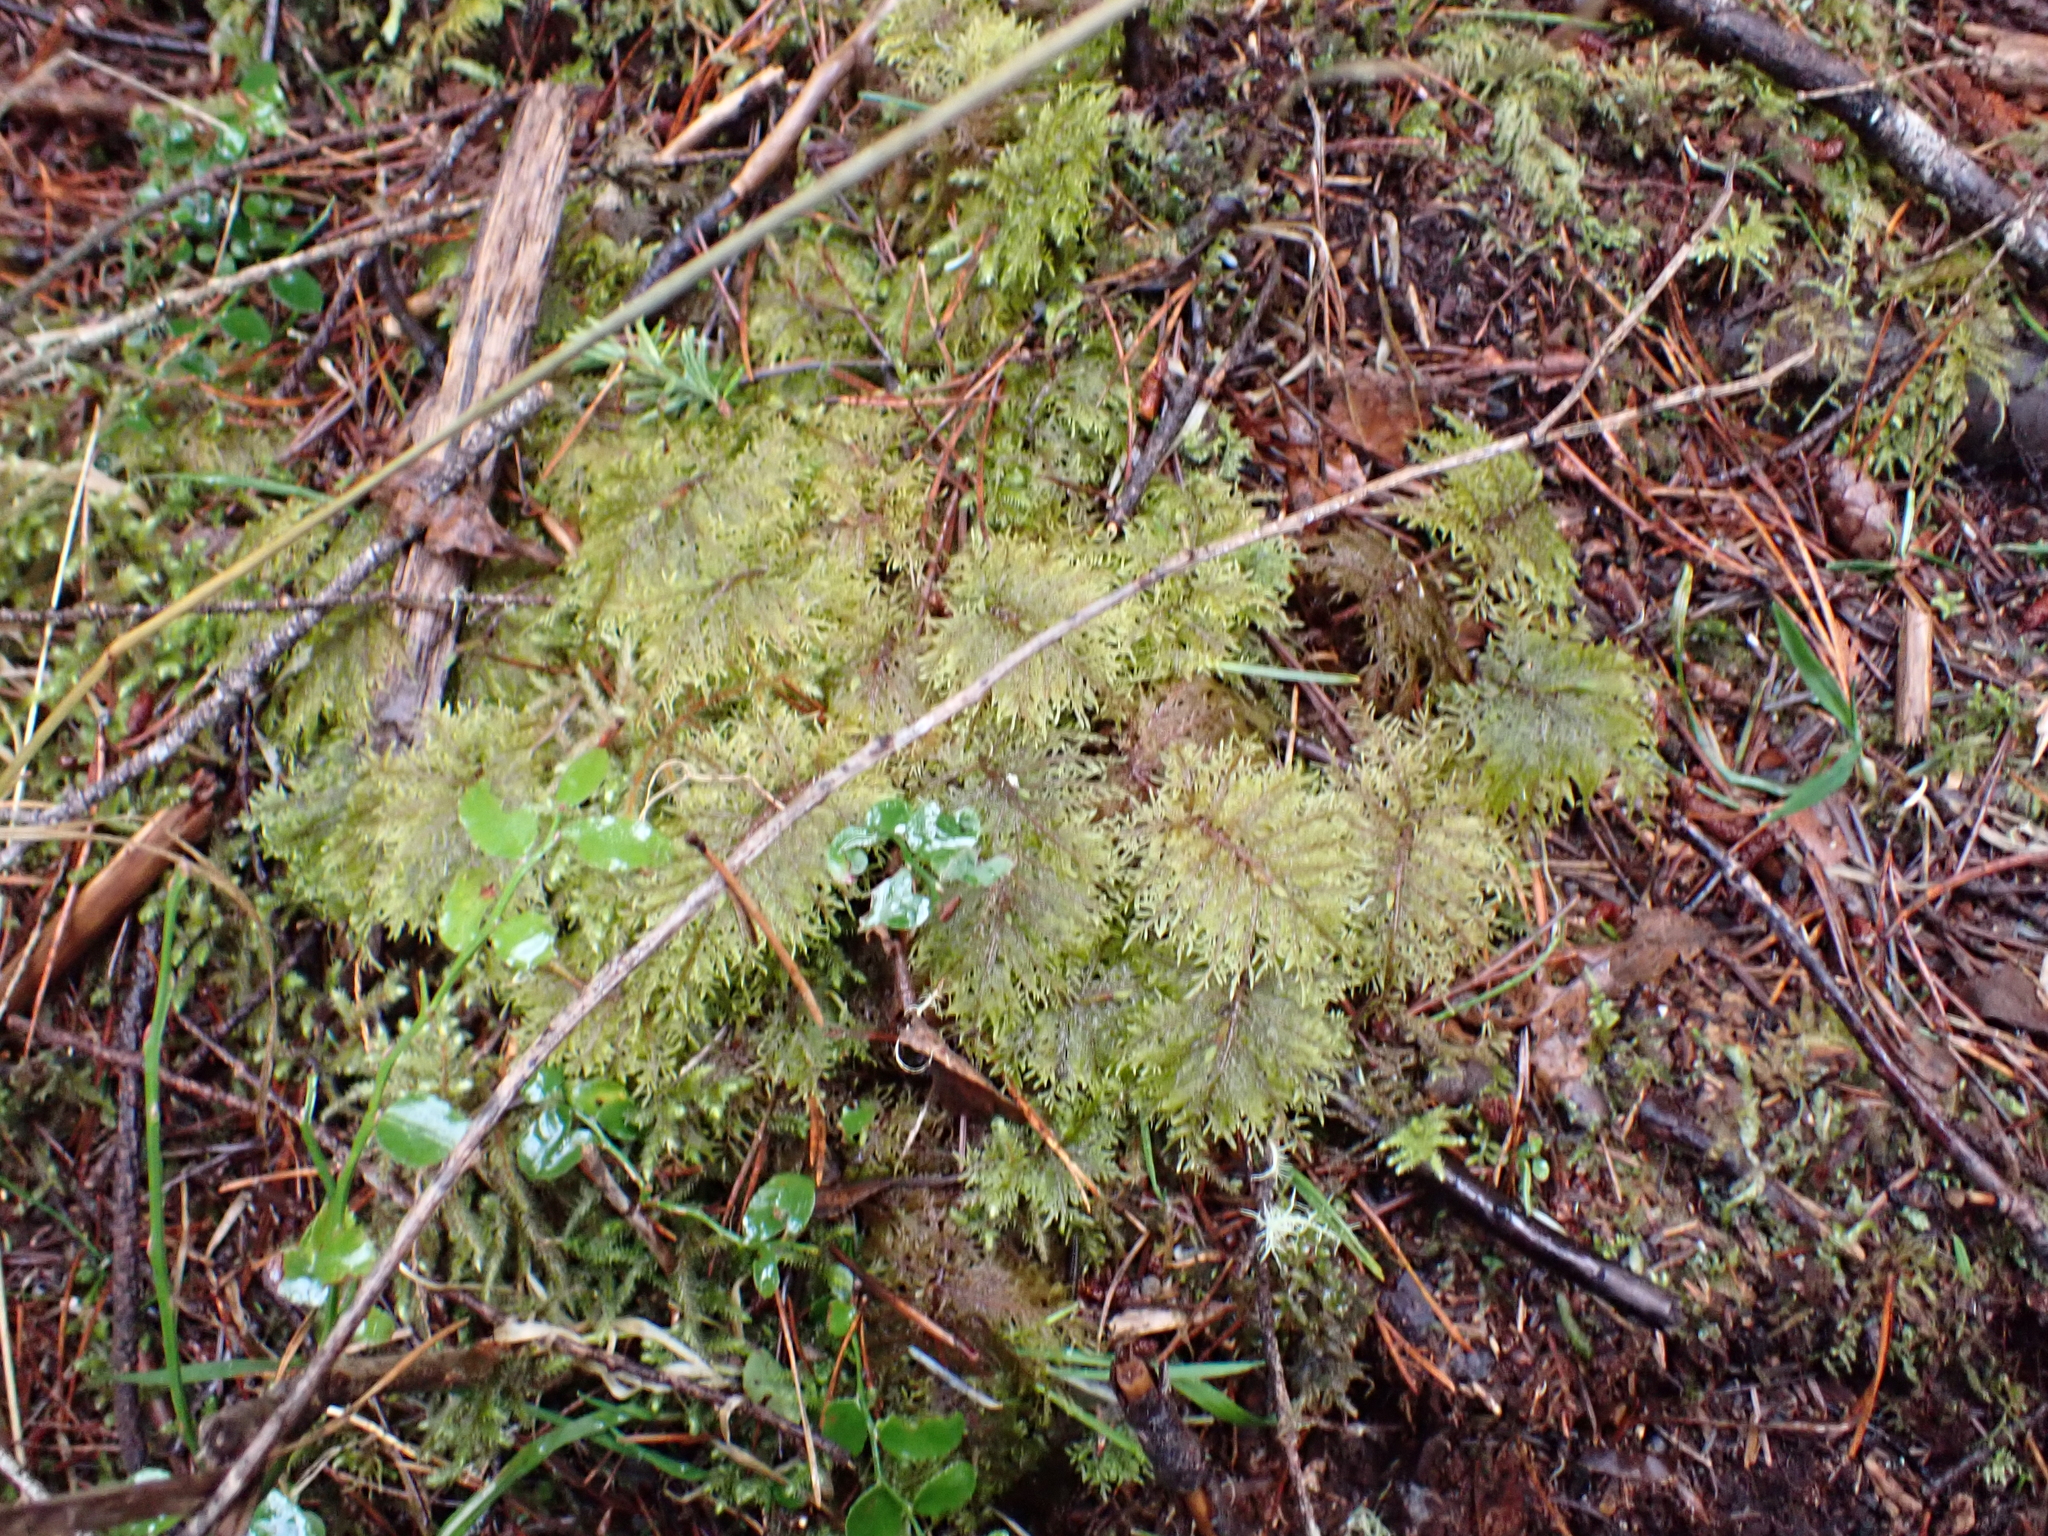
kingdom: Plantae
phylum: Bryophyta
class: Bryopsida
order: Hypnales
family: Hylocomiaceae
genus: Hylocomium
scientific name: Hylocomium splendens
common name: Stairstep moss
